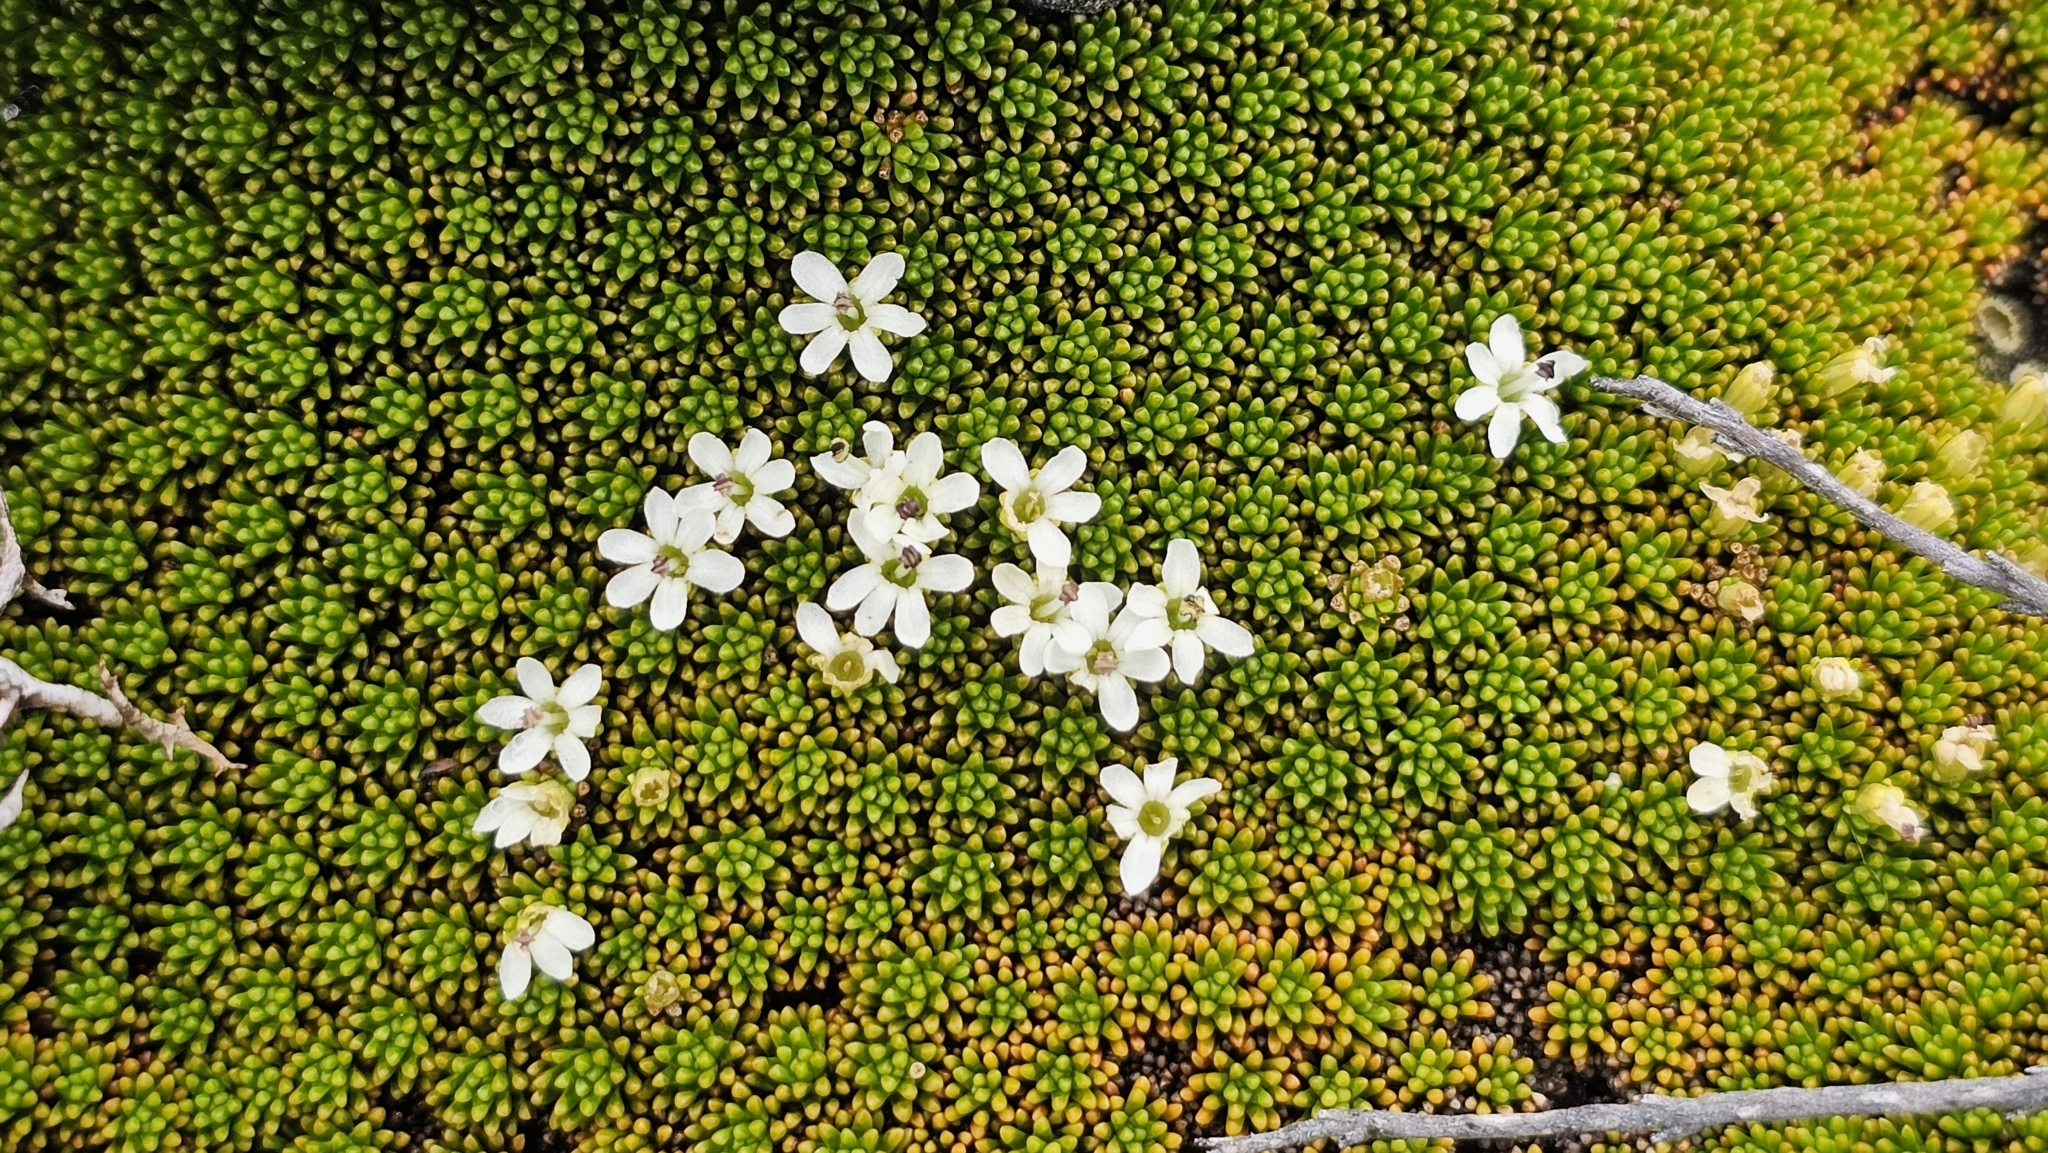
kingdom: Plantae
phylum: Tracheophyta
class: Magnoliopsida
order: Asterales
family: Stylidiaceae
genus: Phyllachne
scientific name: Phyllachne colensoi
